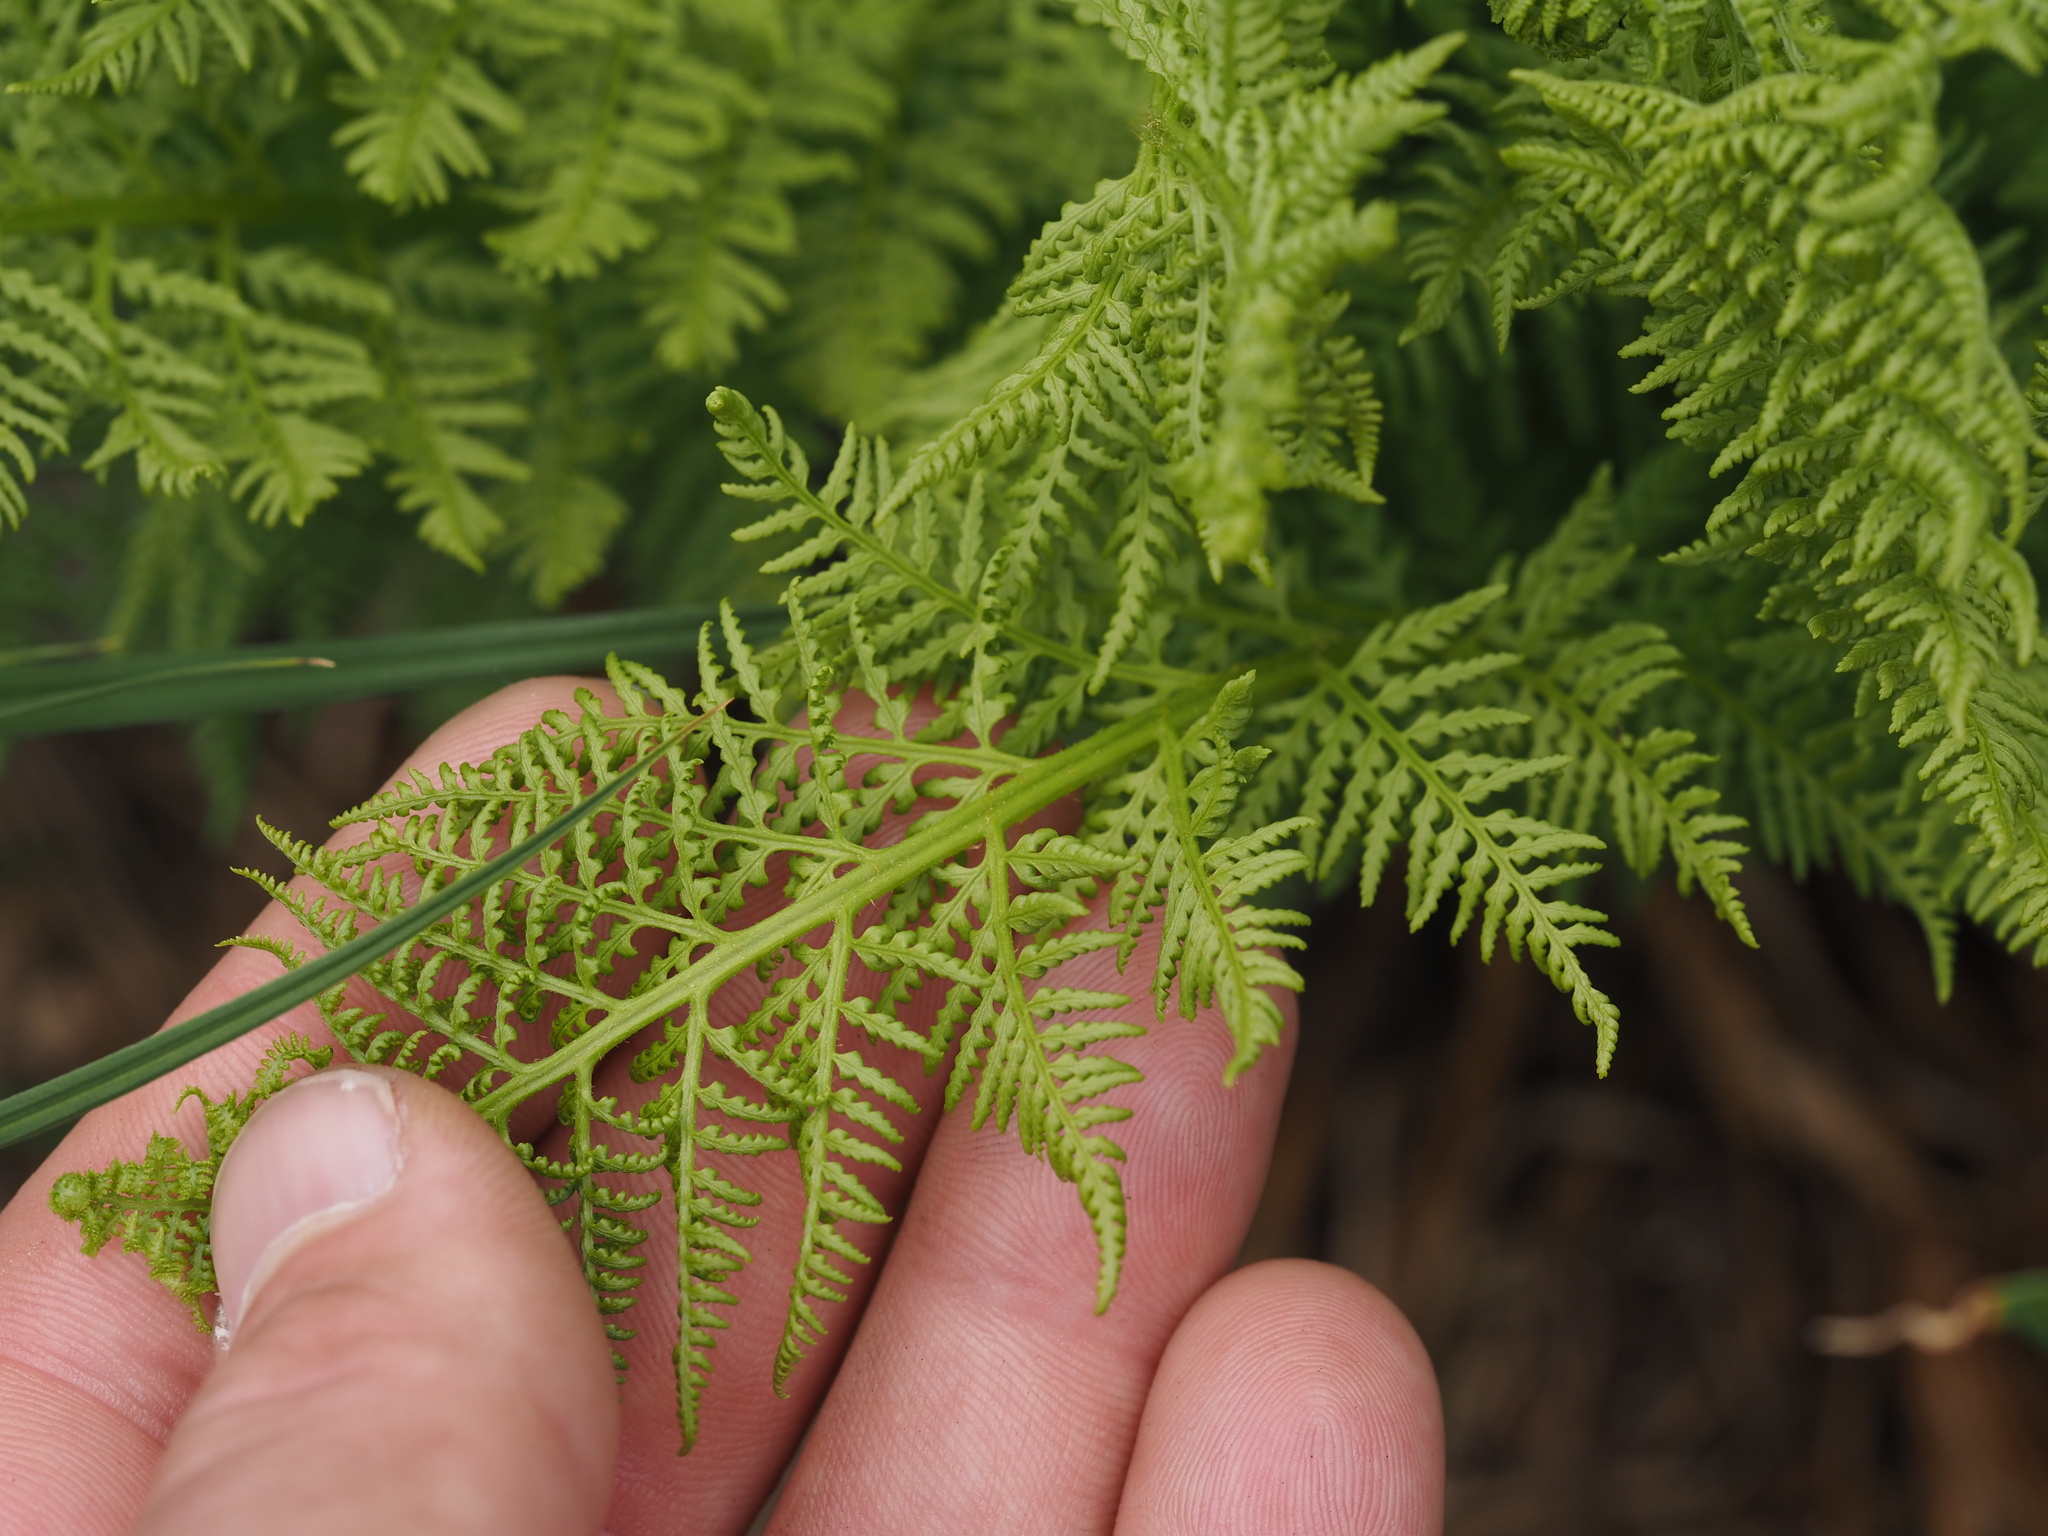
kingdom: Plantae
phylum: Tracheophyta
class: Polypodiopsida
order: Polypodiales
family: Athyriaceae
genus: Athyrium
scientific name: Athyrium americanum
